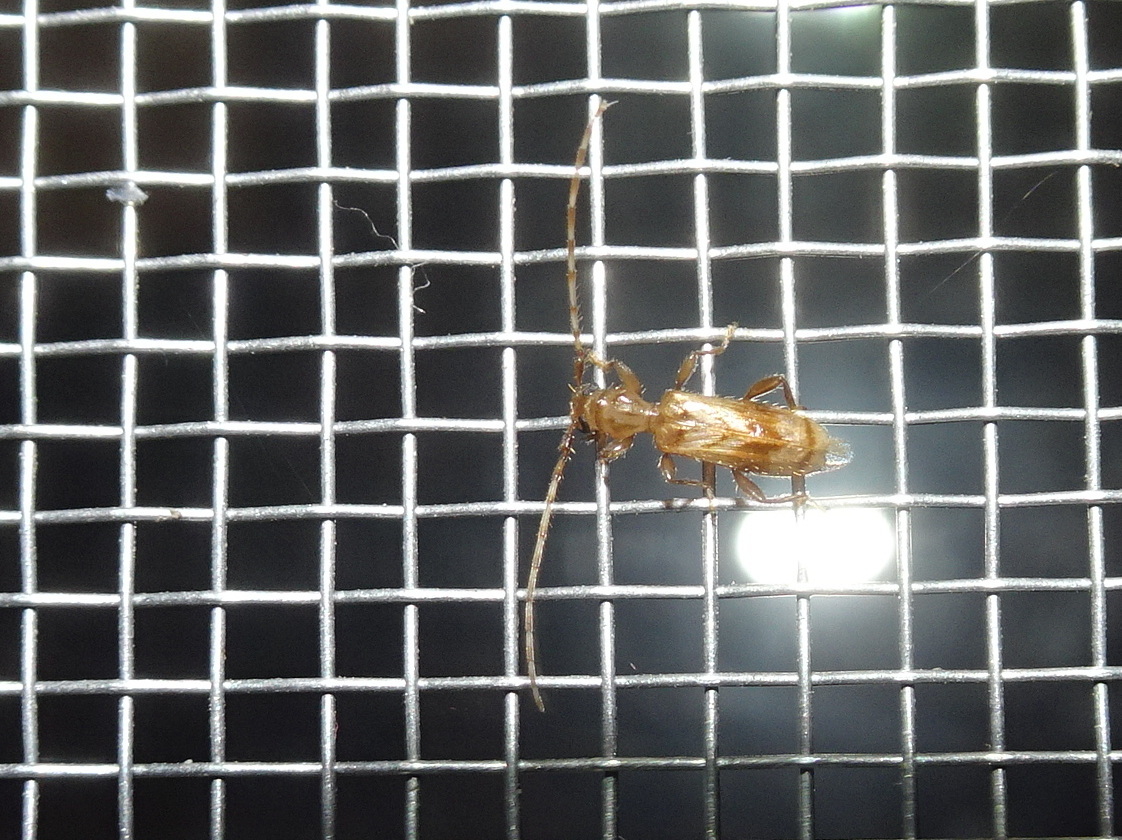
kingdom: Animalia
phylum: Arthropoda
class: Insecta
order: Coleoptera
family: Cerambycidae
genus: Obrium
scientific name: Obrium maculatum
